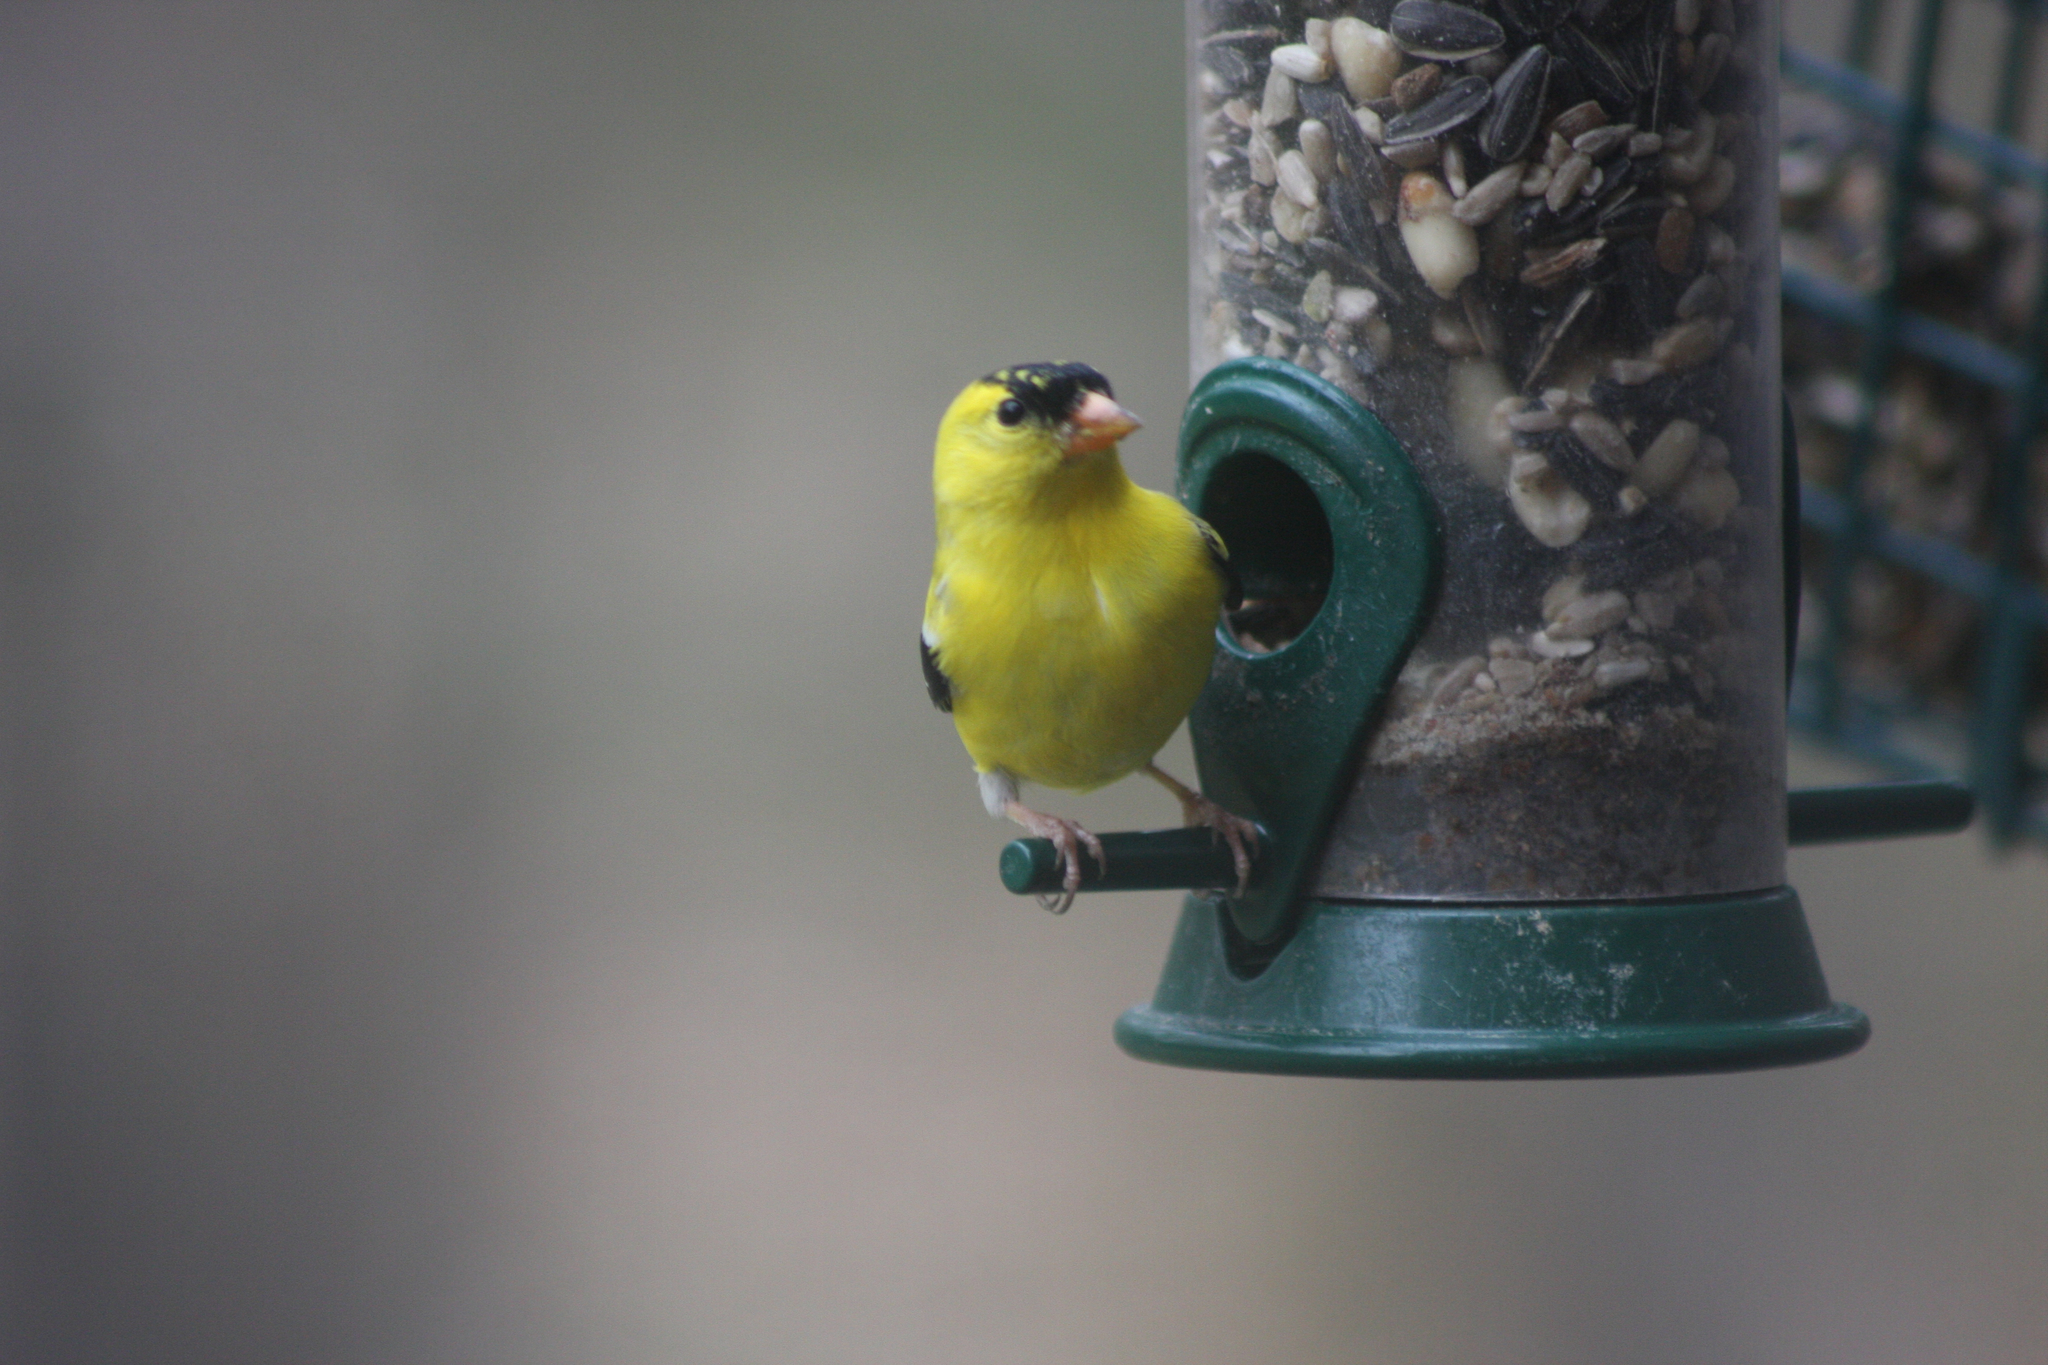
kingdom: Animalia
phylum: Chordata
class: Aves
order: Passeriformes
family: Fringillidae
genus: Spinus
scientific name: Spinus tristis
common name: American goldfinch
